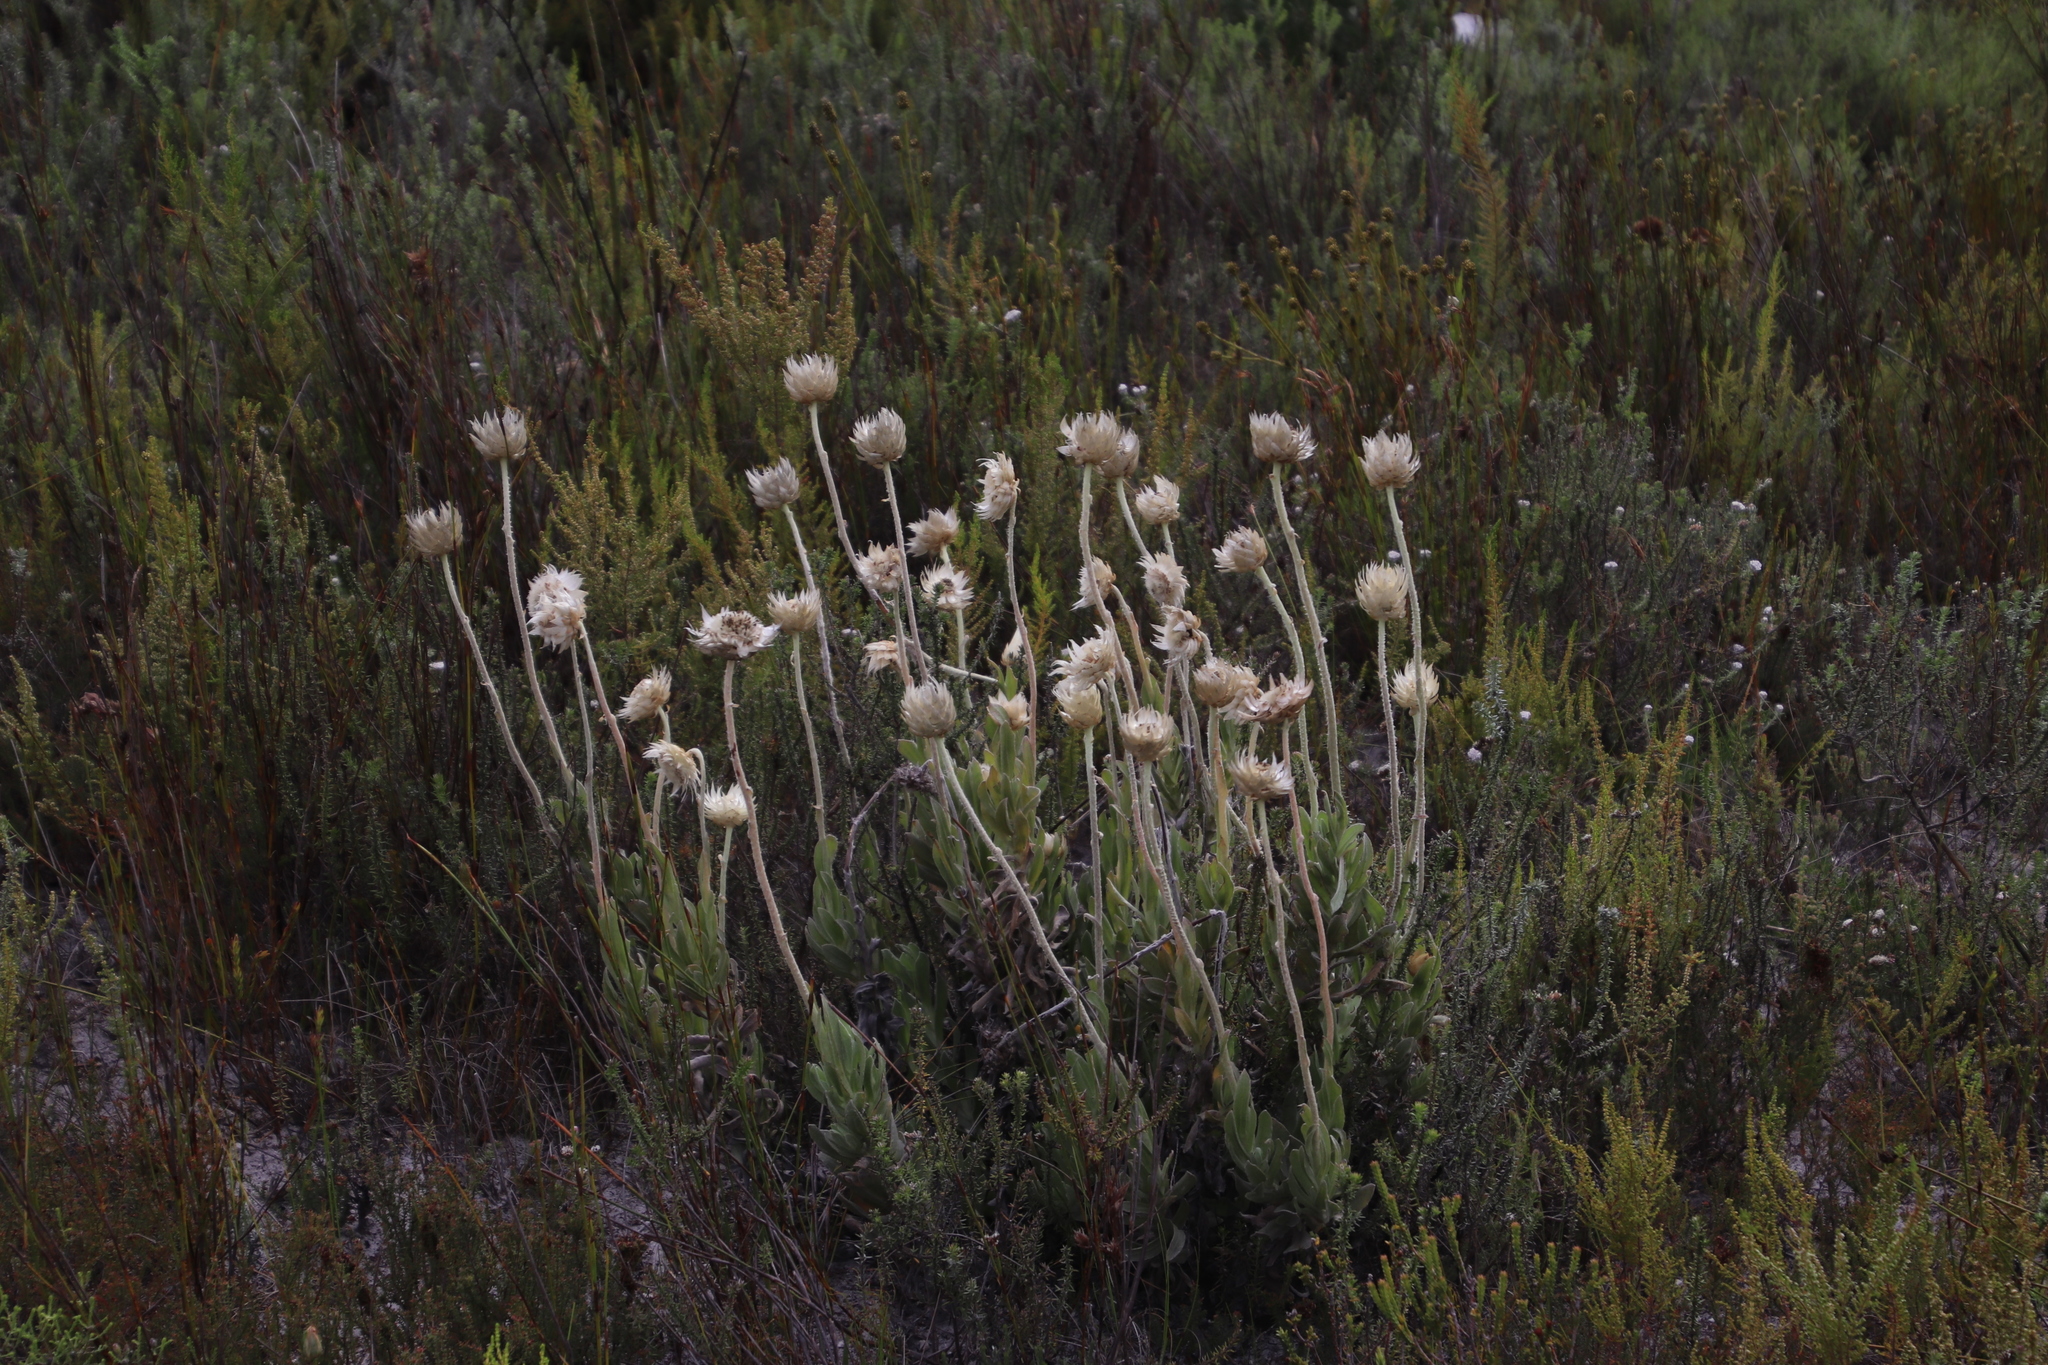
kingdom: Plantae
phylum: Tracheophyta
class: Magnoliopsida
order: Asterales
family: Asteraceae
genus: Syncarpha
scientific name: Syncarpha speciosissima
